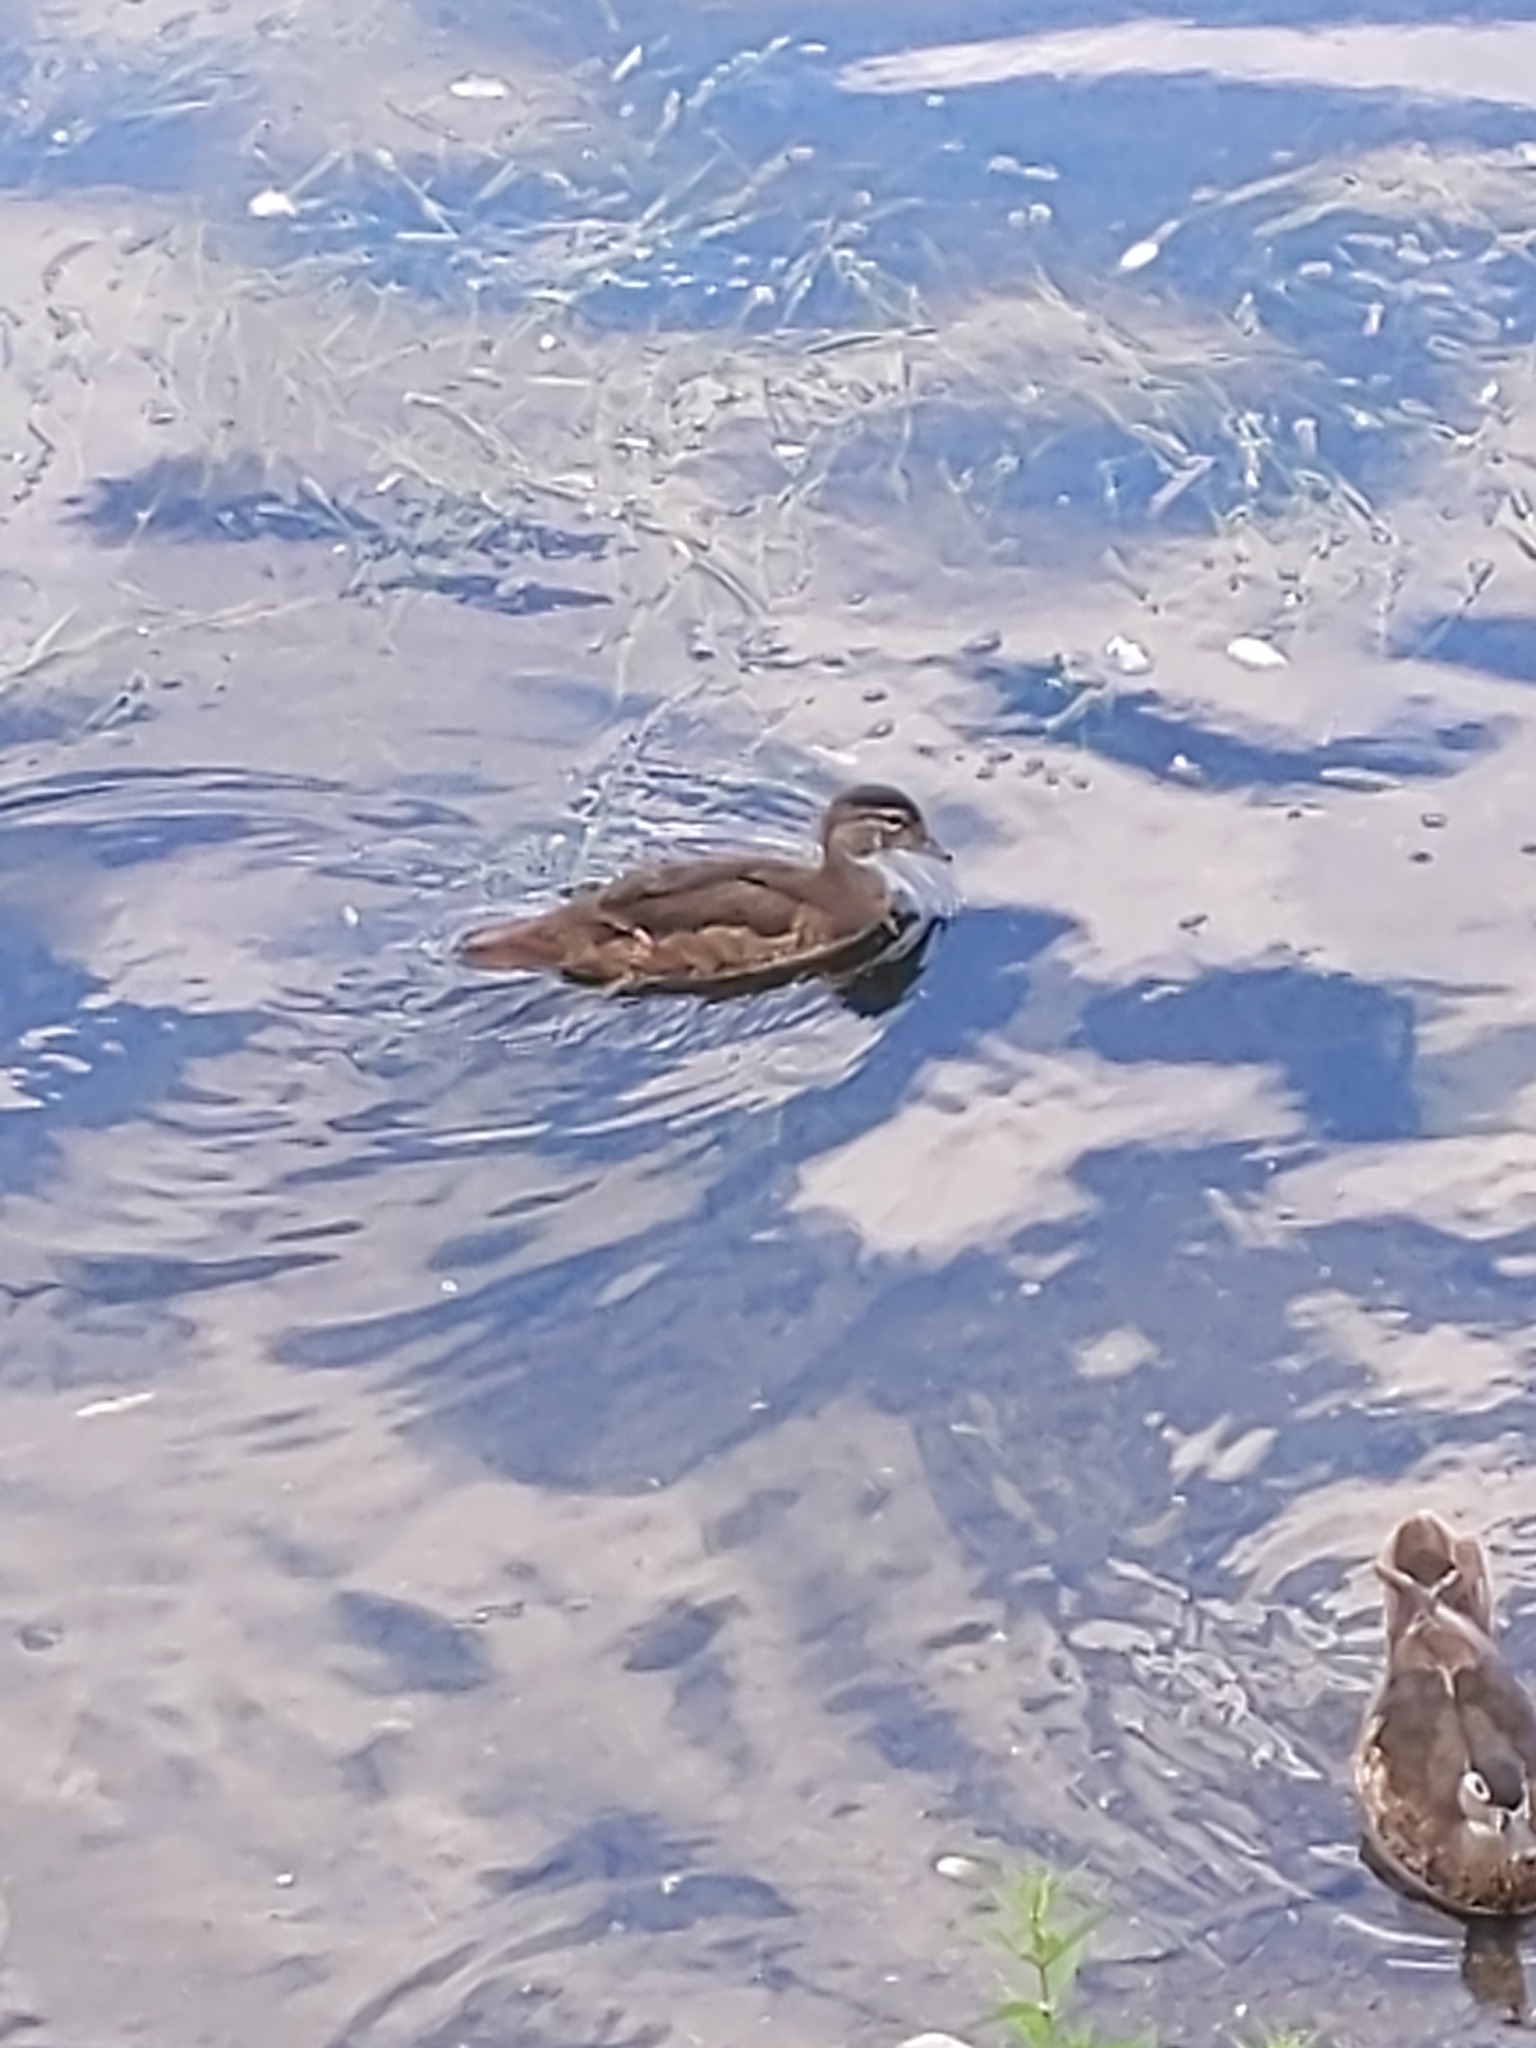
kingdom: Animalia
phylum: Chordata
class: Aves
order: Anseriformes
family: Anatidae
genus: Aix
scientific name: Aix sponsa
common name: Wood duck
